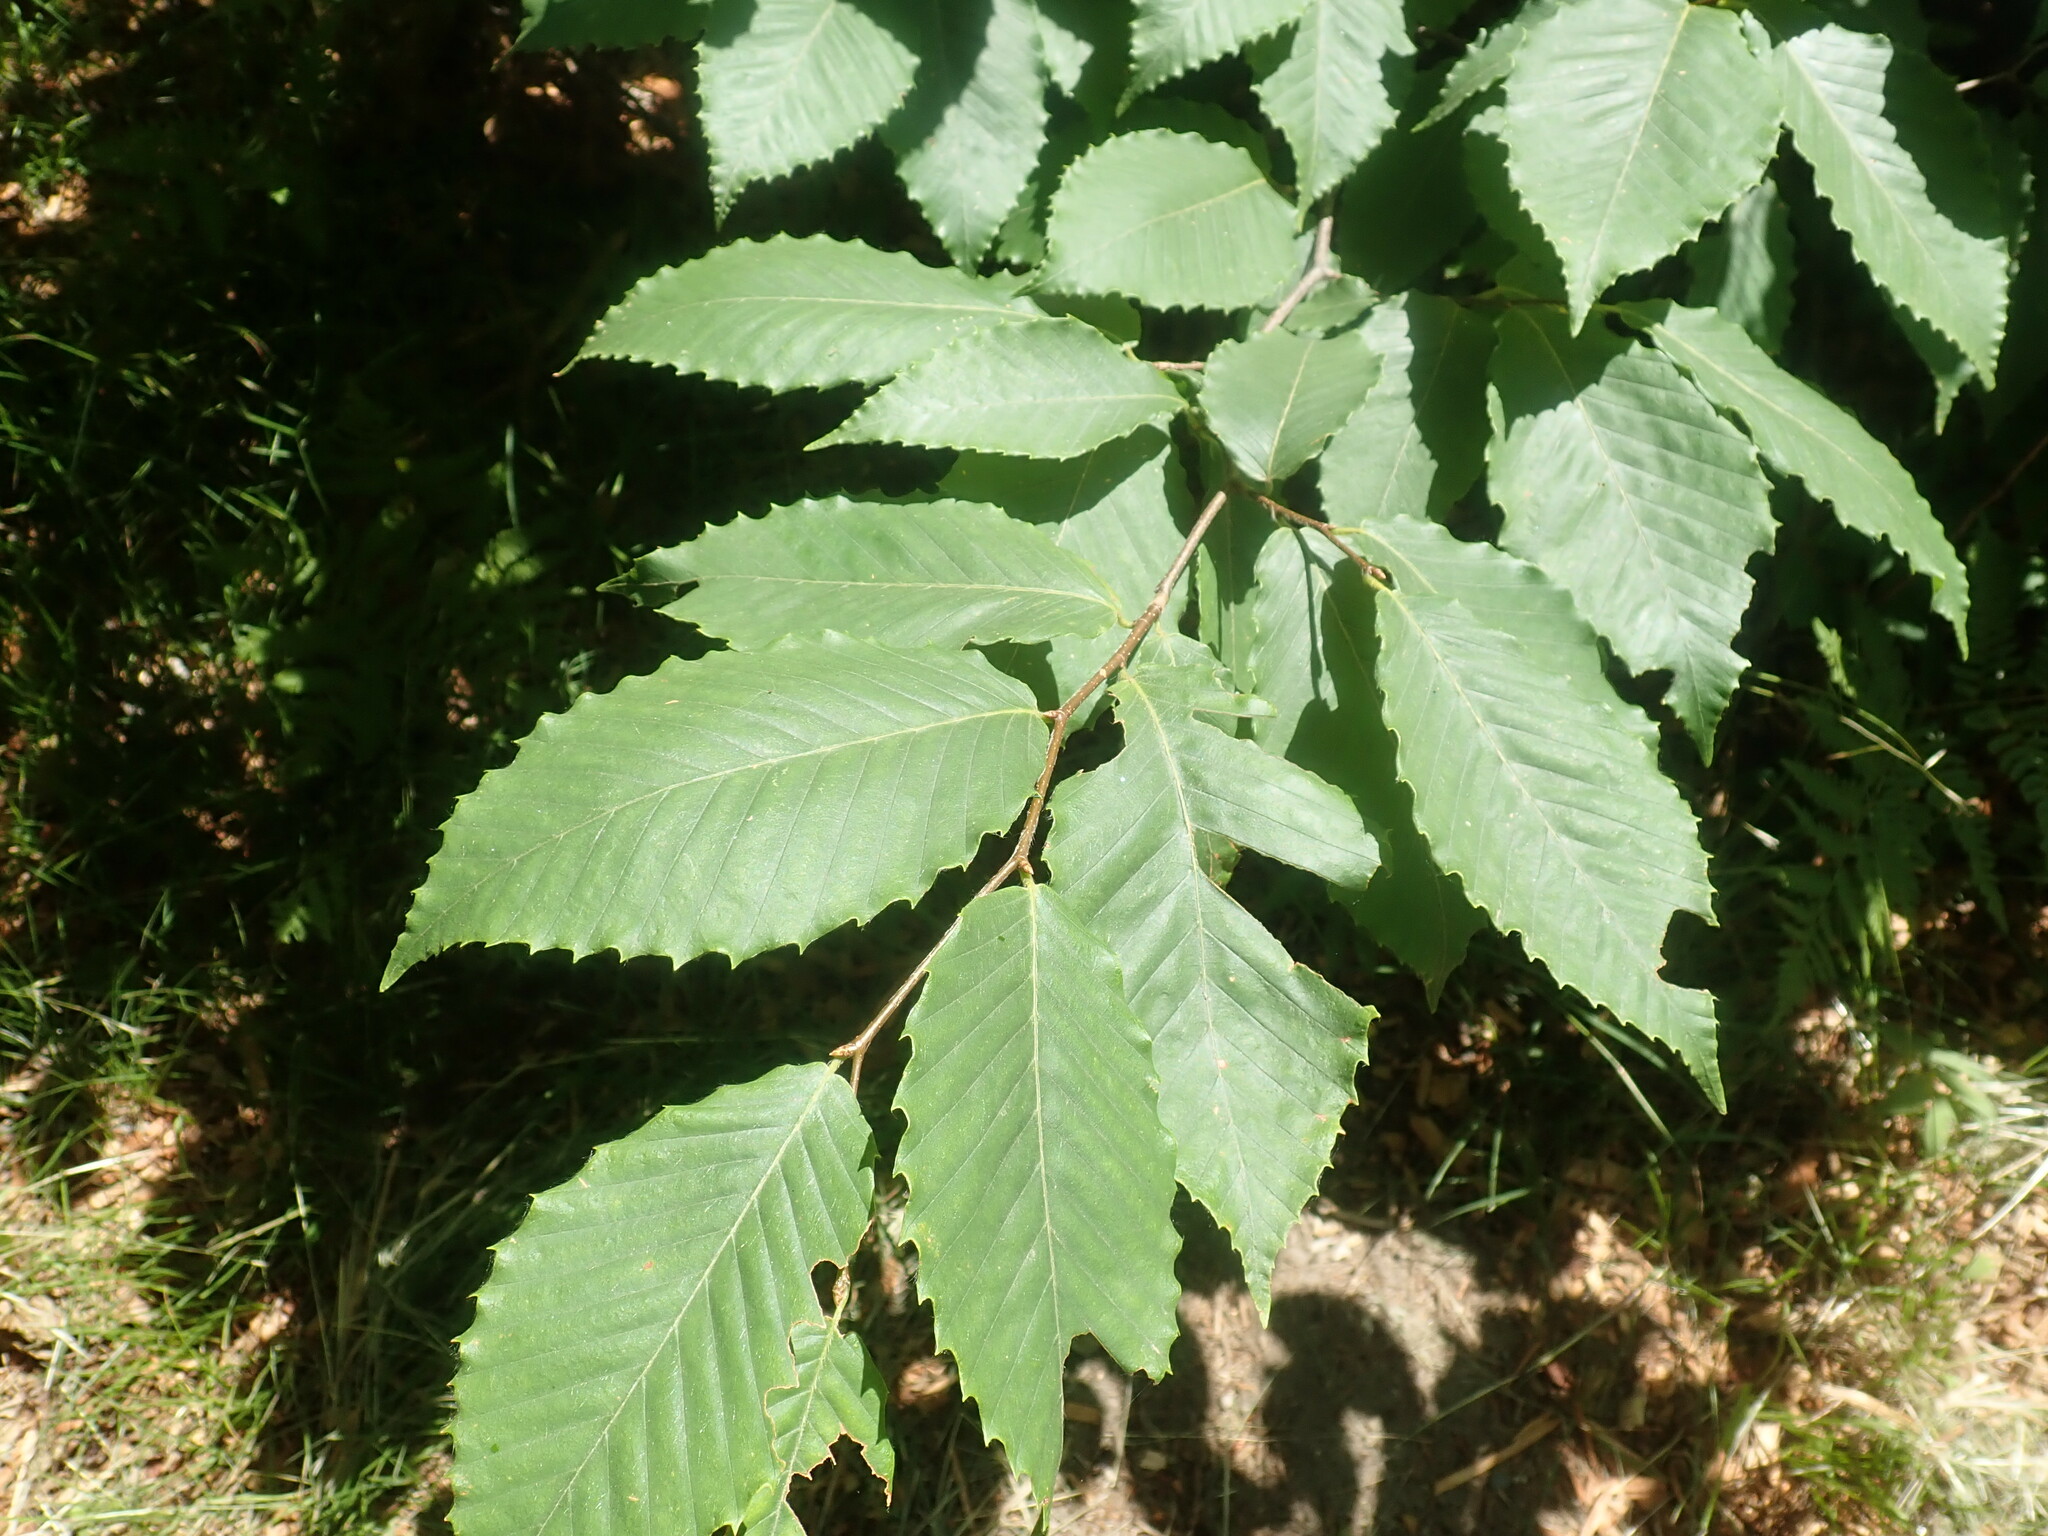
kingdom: Plantae
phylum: Tracheophyta
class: Magnoliopsida
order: Fagales
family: Fagaceae
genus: Fagus
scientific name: Fagus grandifolia
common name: American beech
